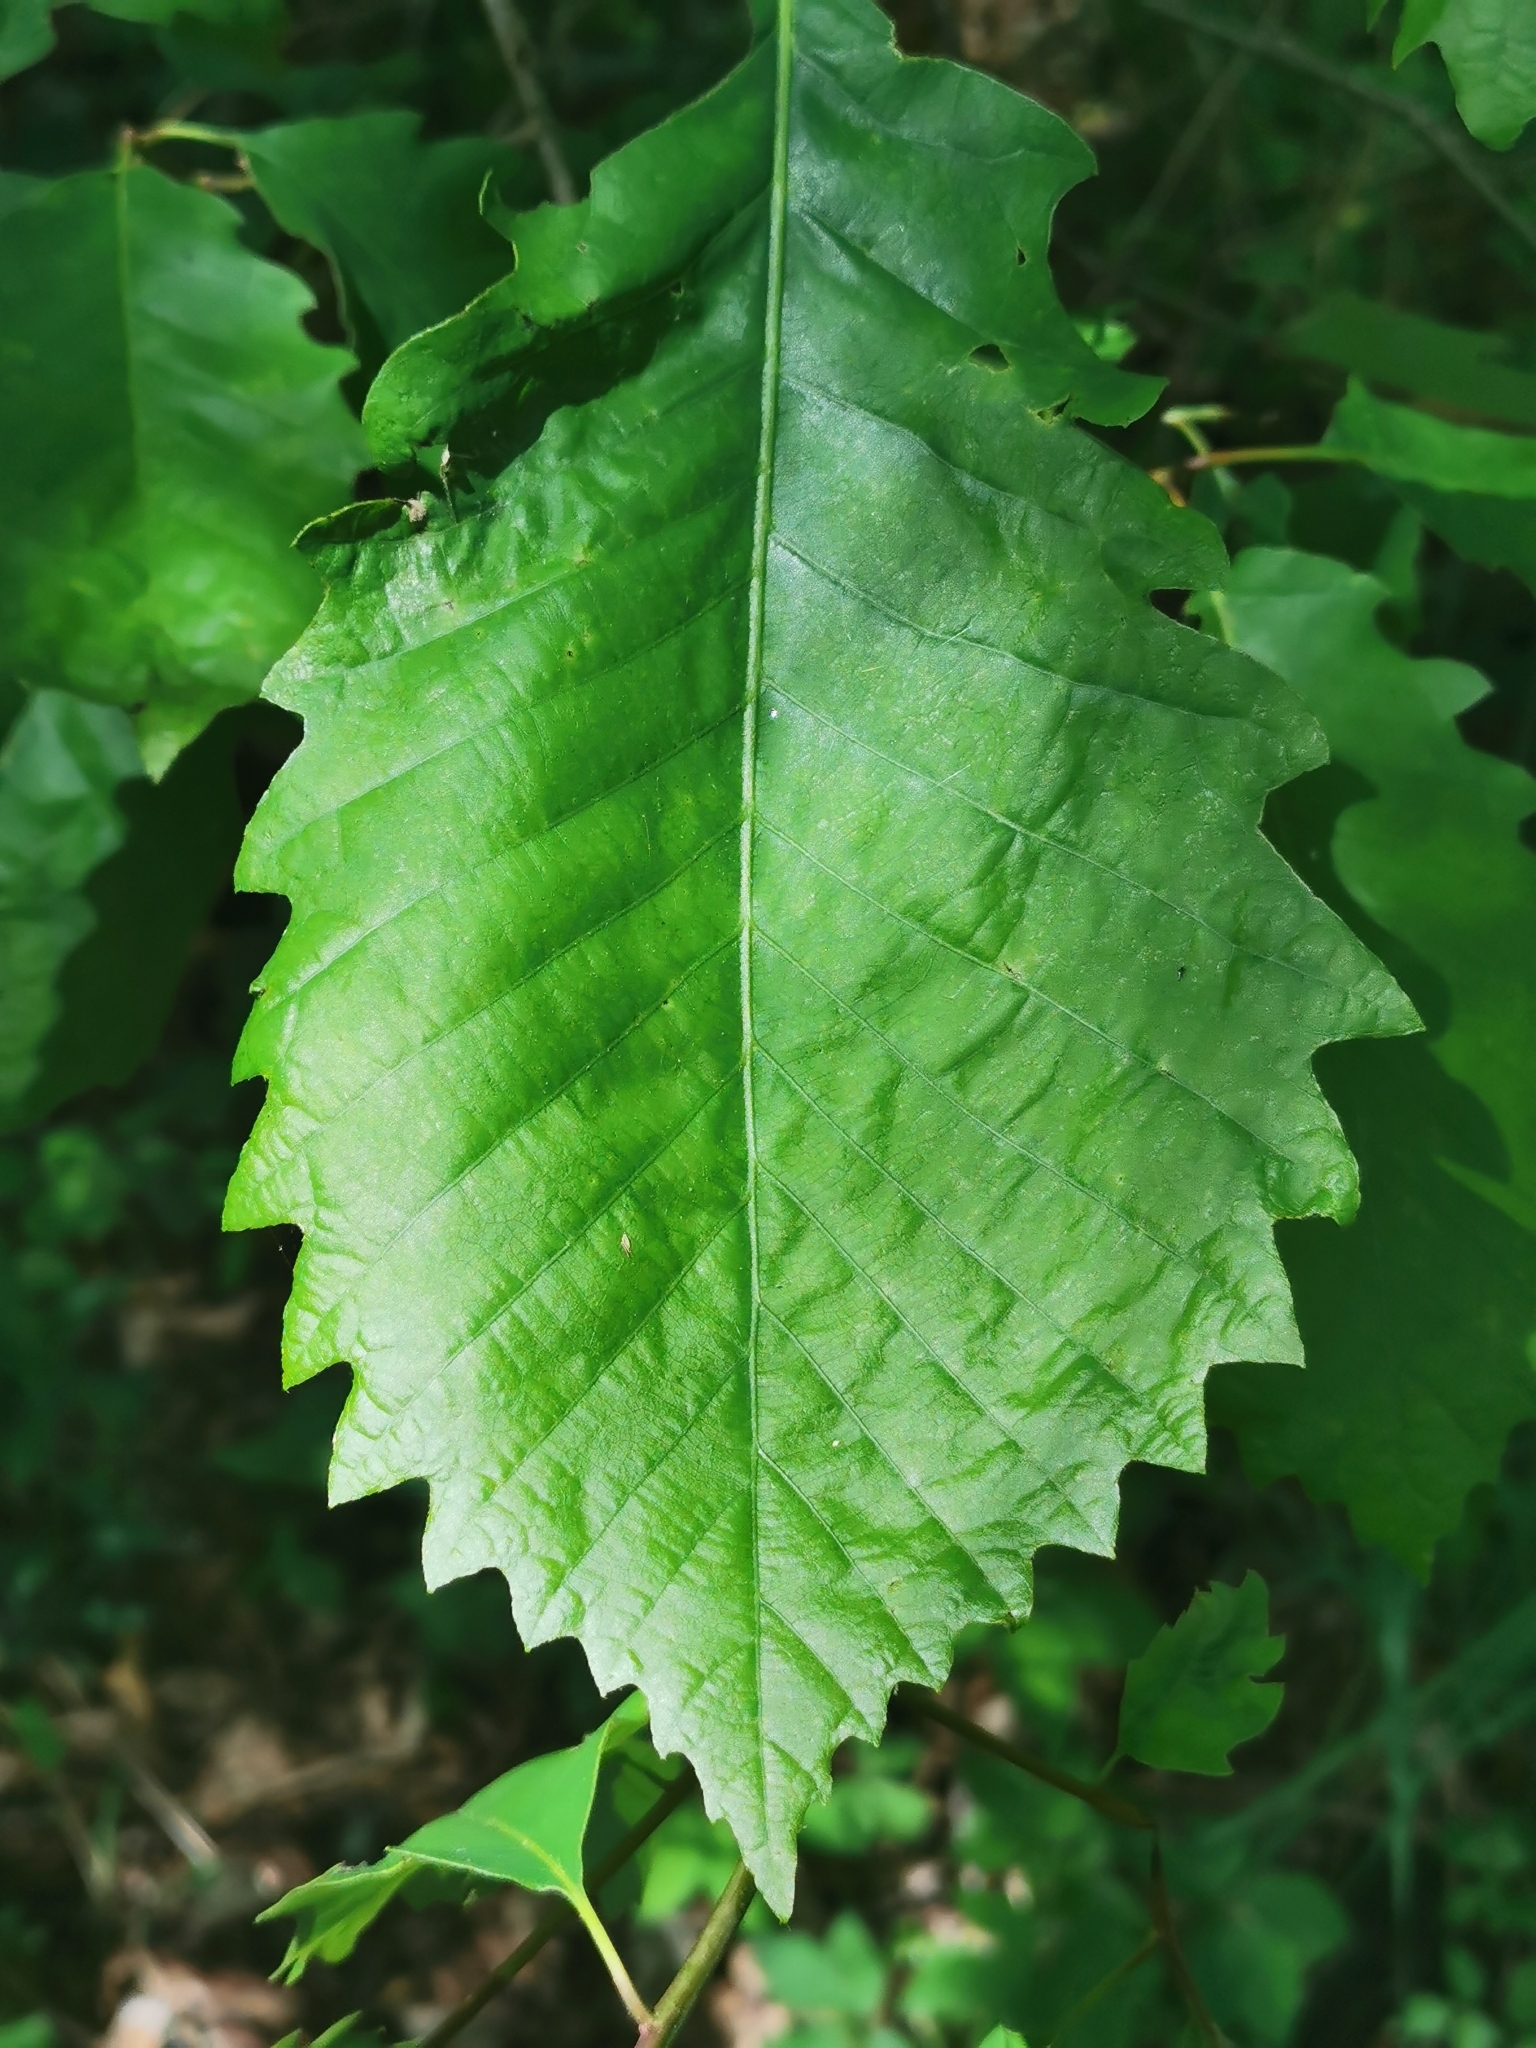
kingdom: Animalia
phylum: Arthropoda
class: Insecta
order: Hymenoptera
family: Cynipidae
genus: Andricus
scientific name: Andricus
